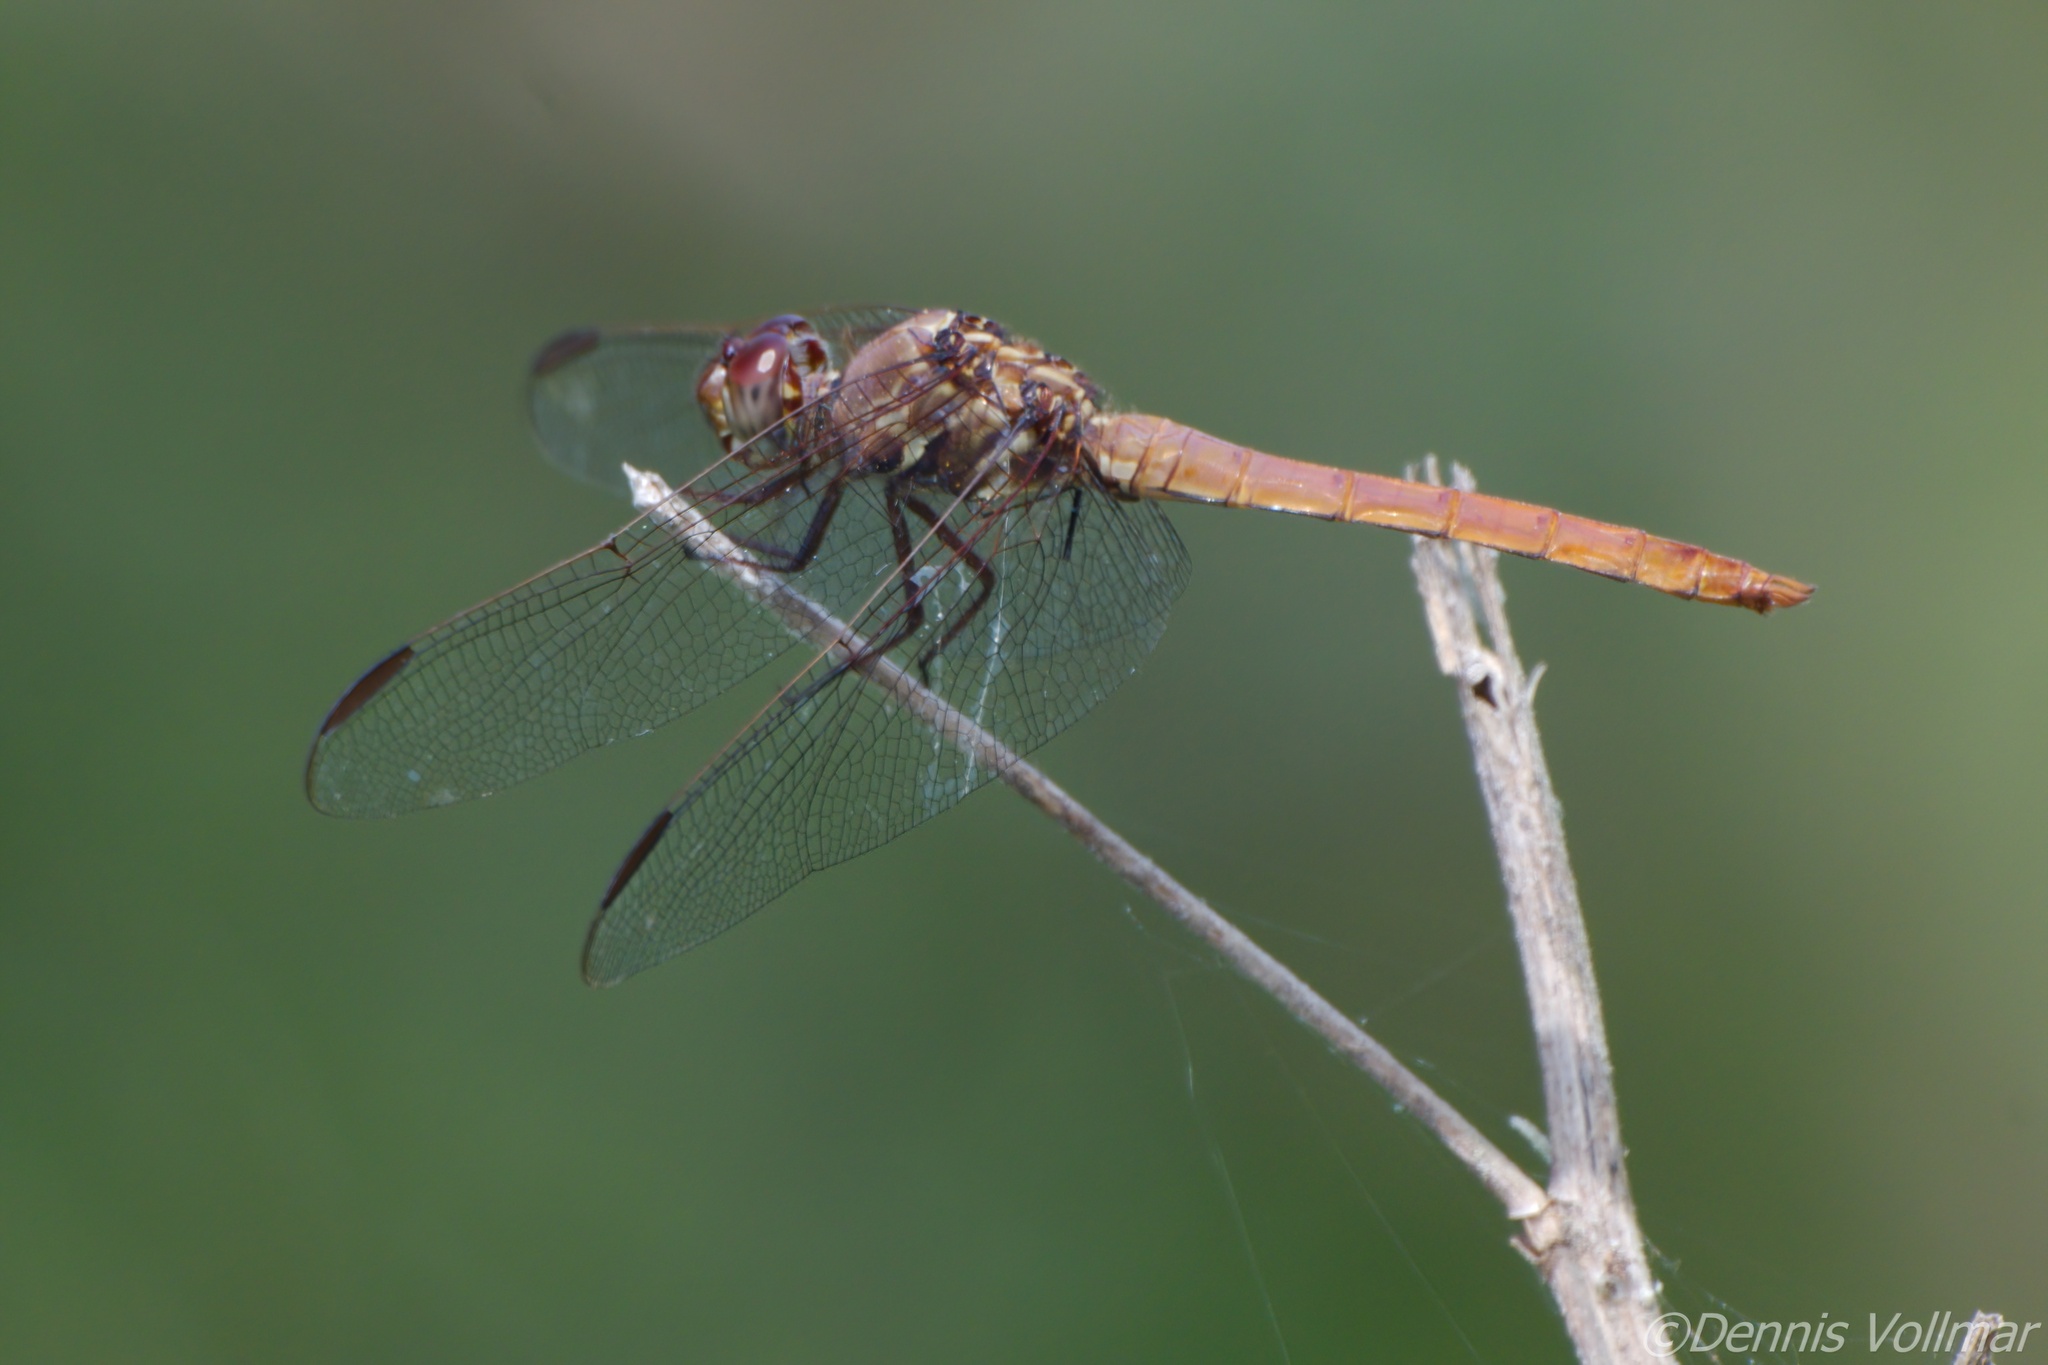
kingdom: Animalia
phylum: Arthropoda
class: Insecta
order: Odonata
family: Libellulidae
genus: Orthemis
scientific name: Orthemis ferruginea
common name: Roseate skimmer
